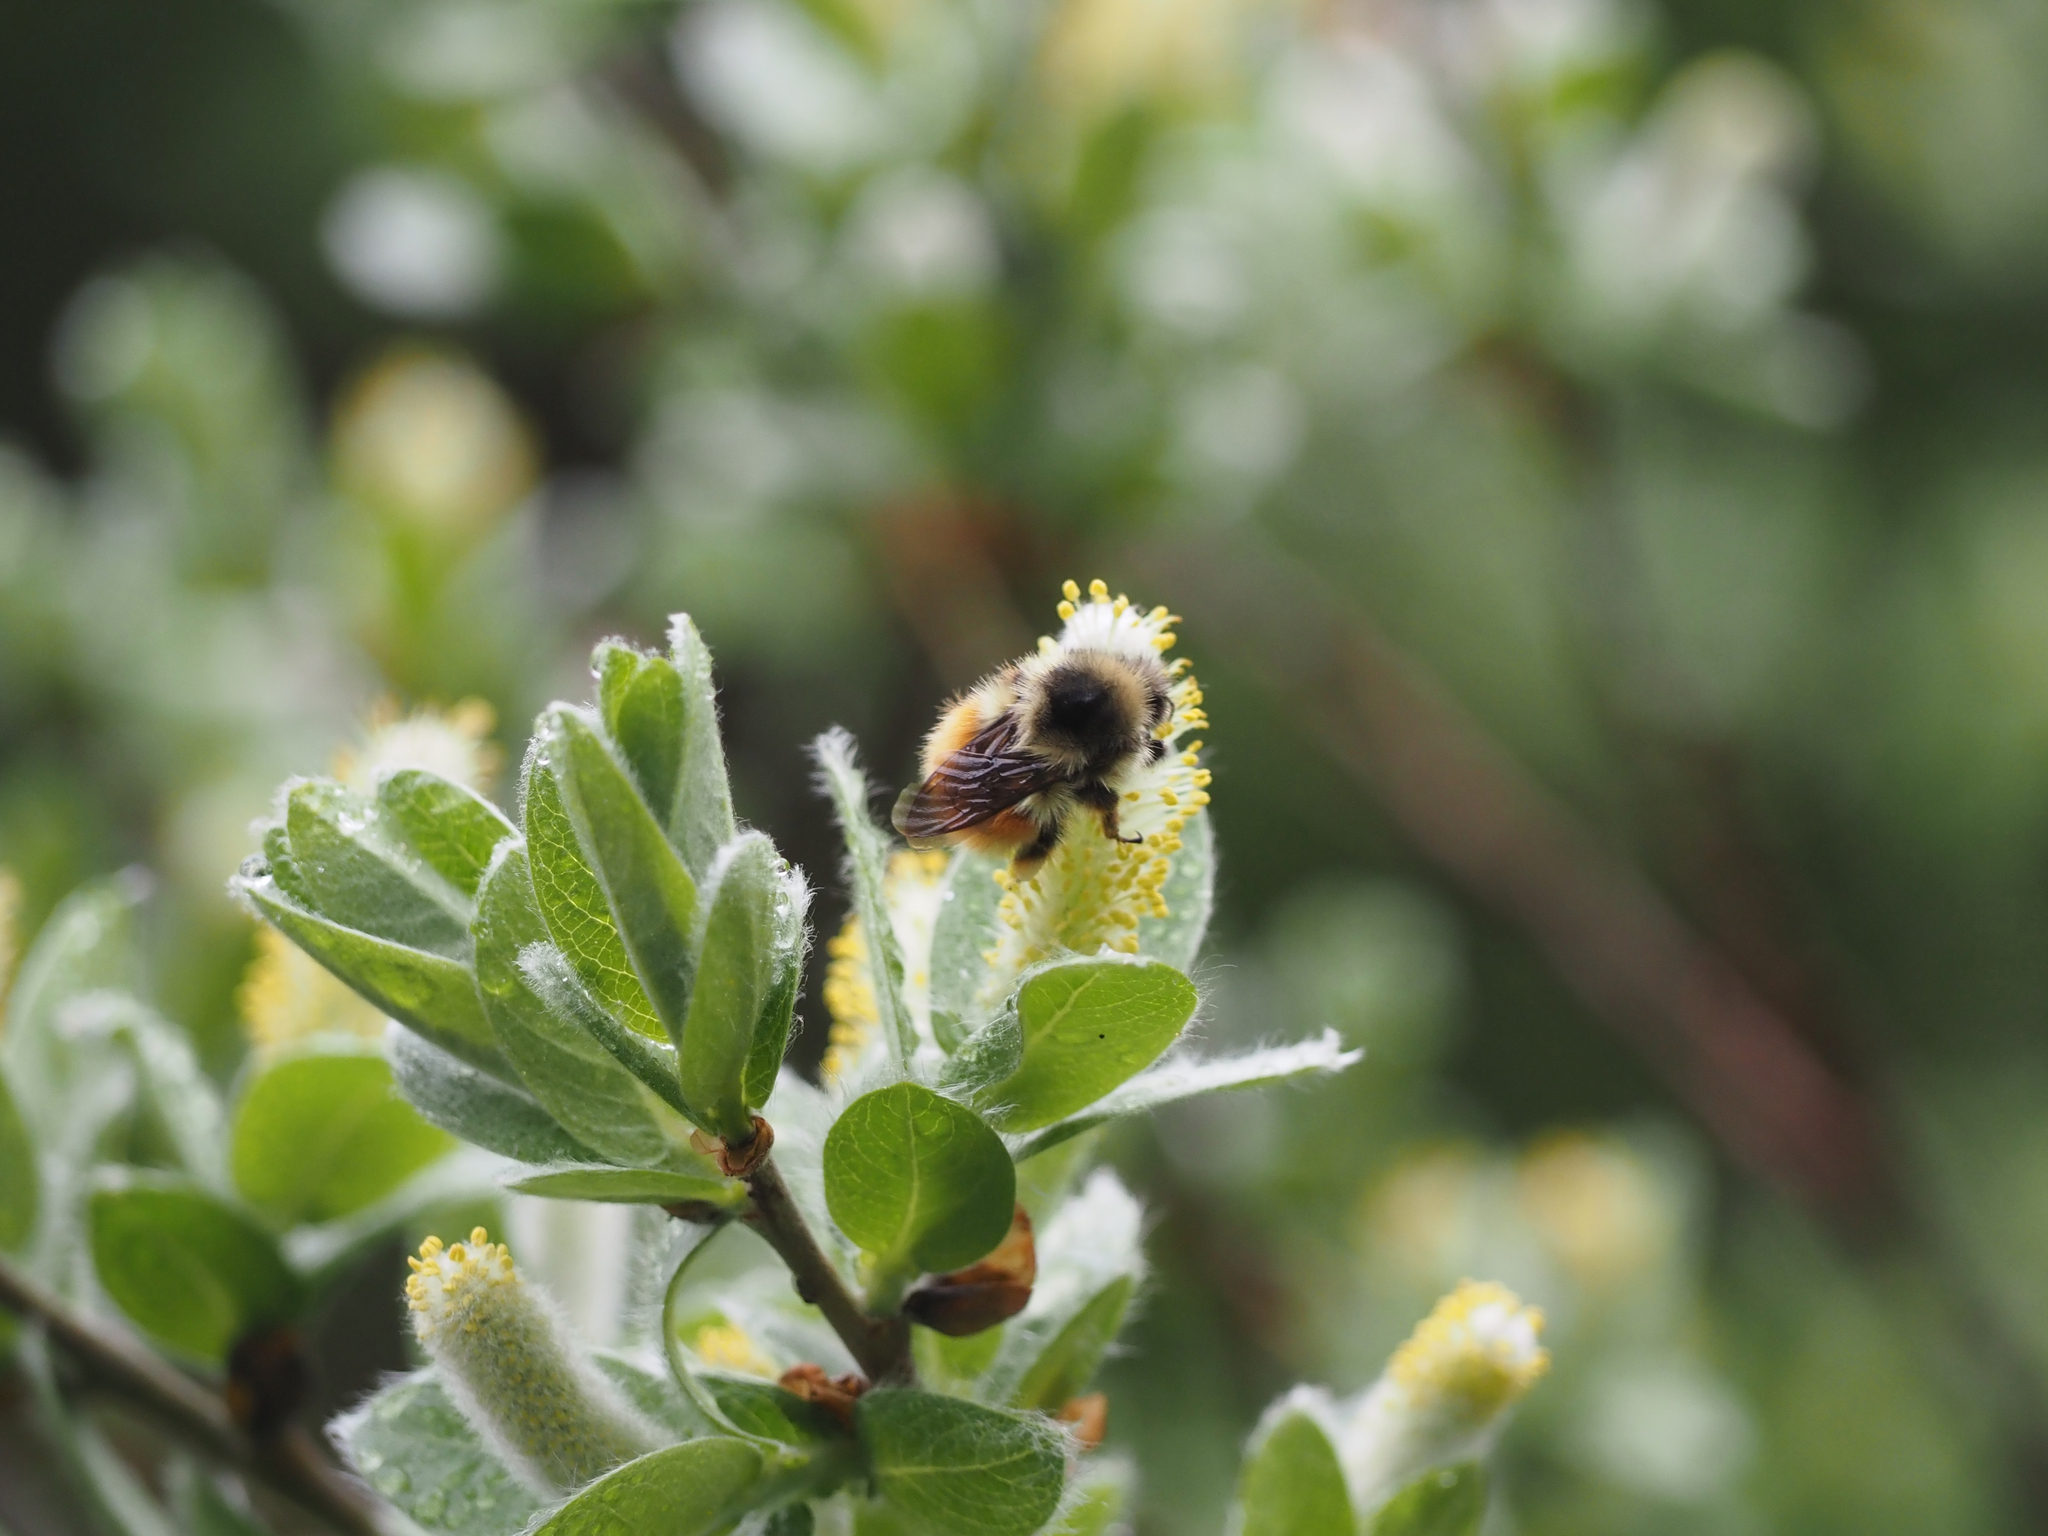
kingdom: Animalia
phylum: Arthropoda
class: Insecta
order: Hymenoptera
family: Apidae
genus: Bombus
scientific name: Bombus melanopygus
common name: Black tail bumble bee
